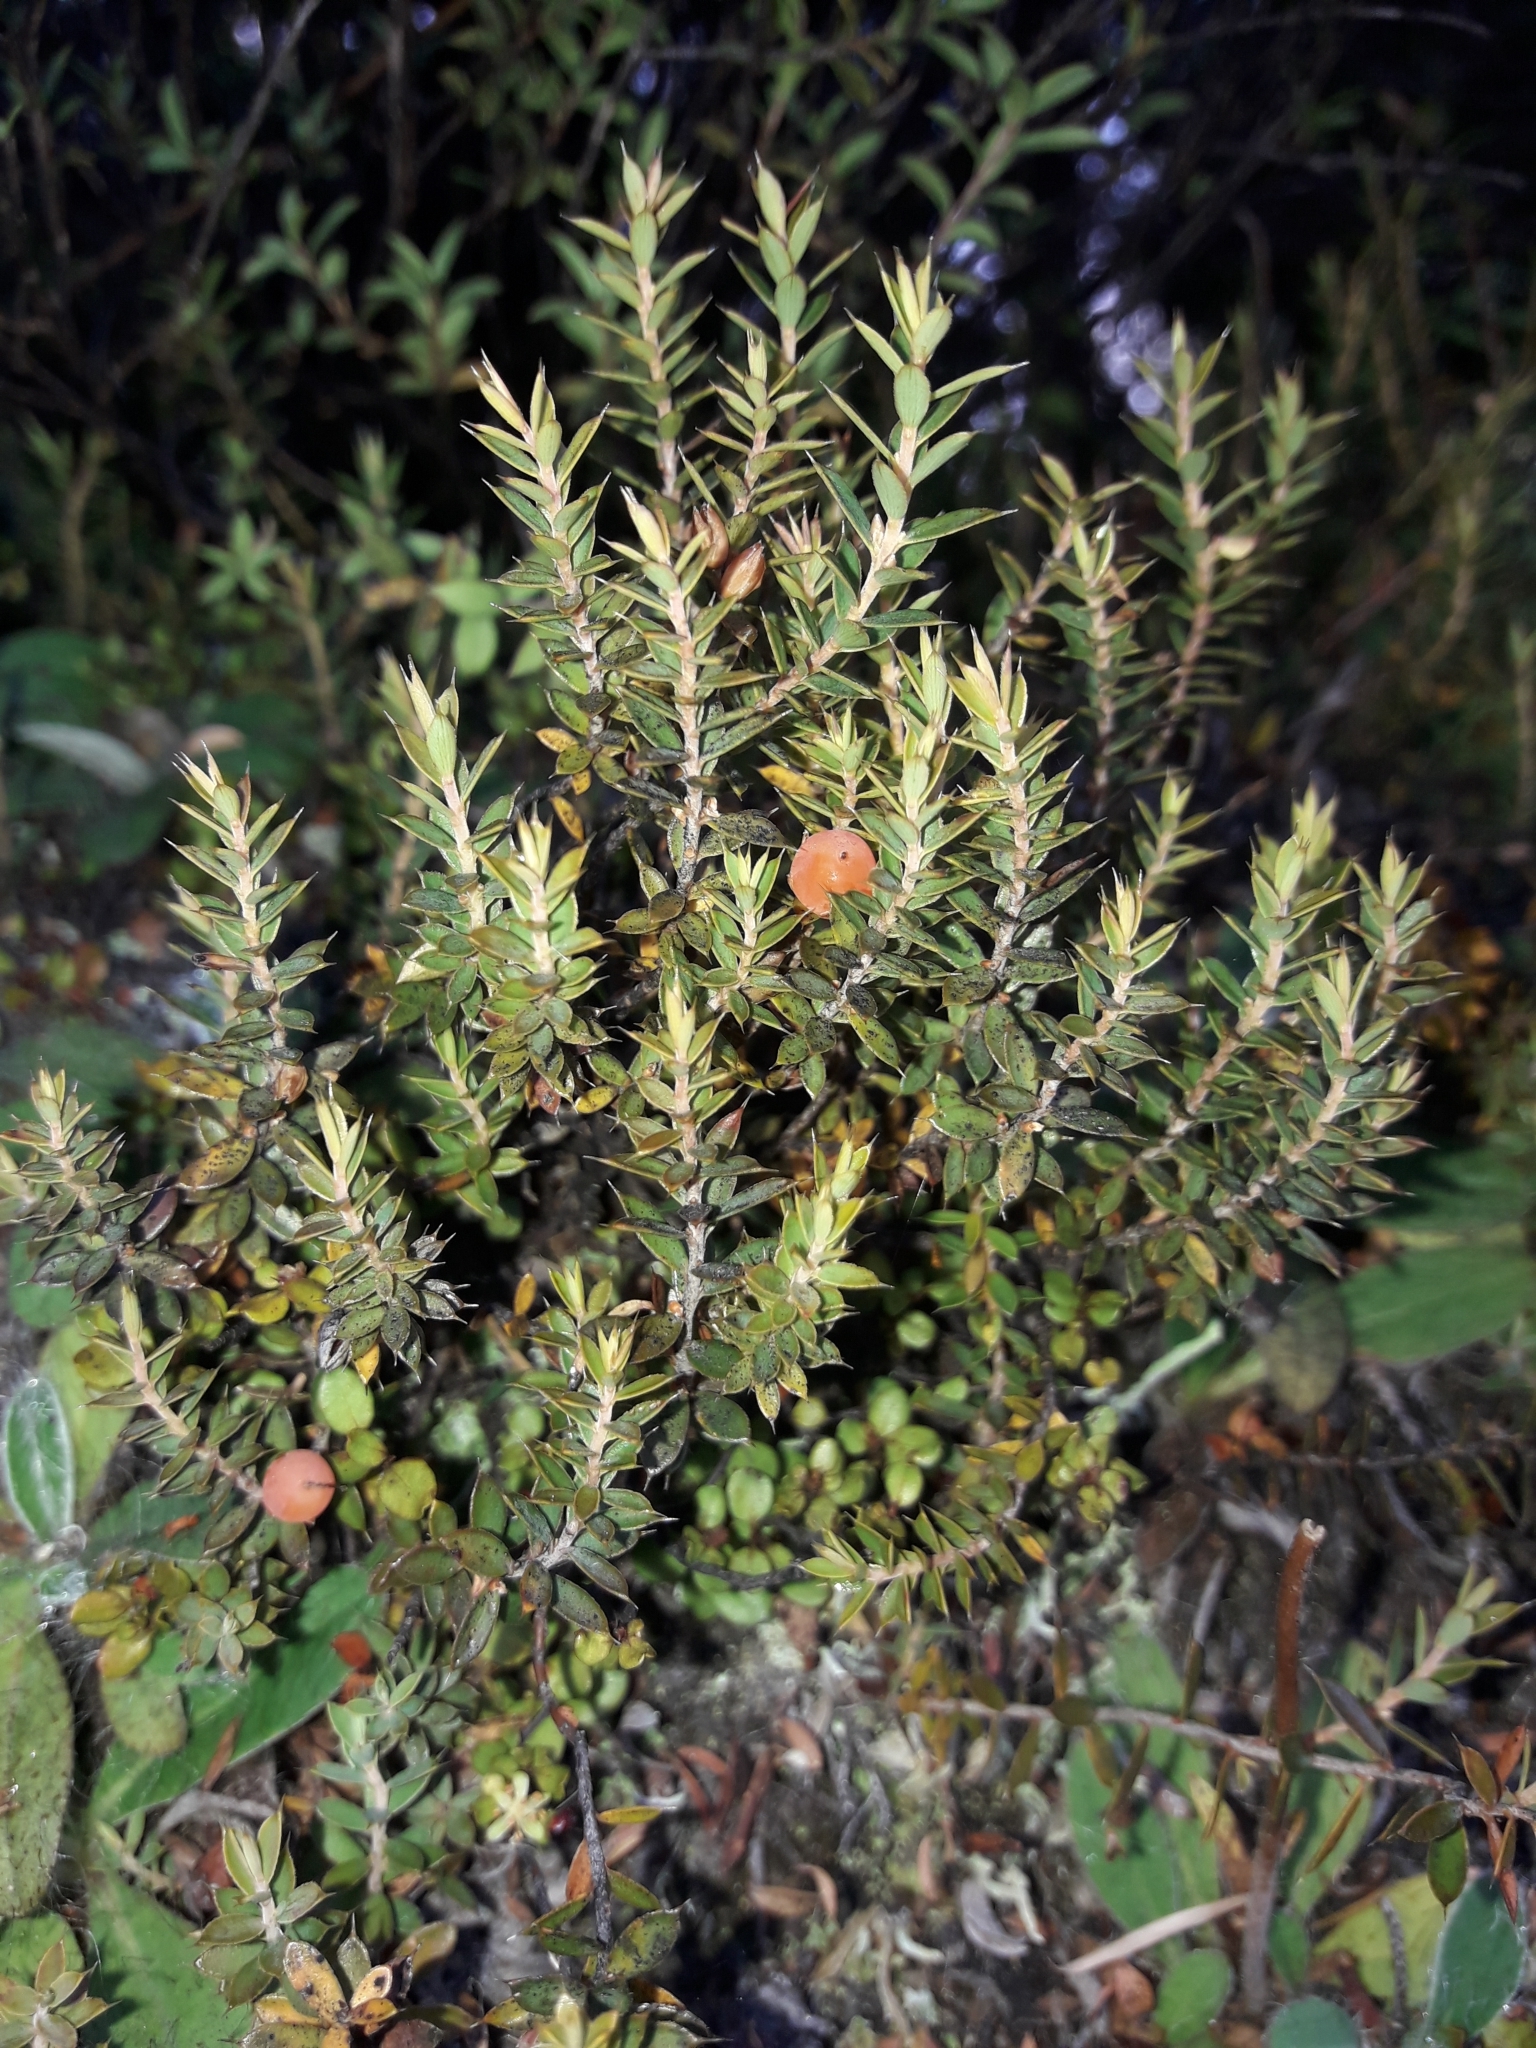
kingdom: Plantae
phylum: Tracheophyta
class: Magnoliopsida
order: Ericales
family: Ericaceae
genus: Styphelia
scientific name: Styphelia nesophila
